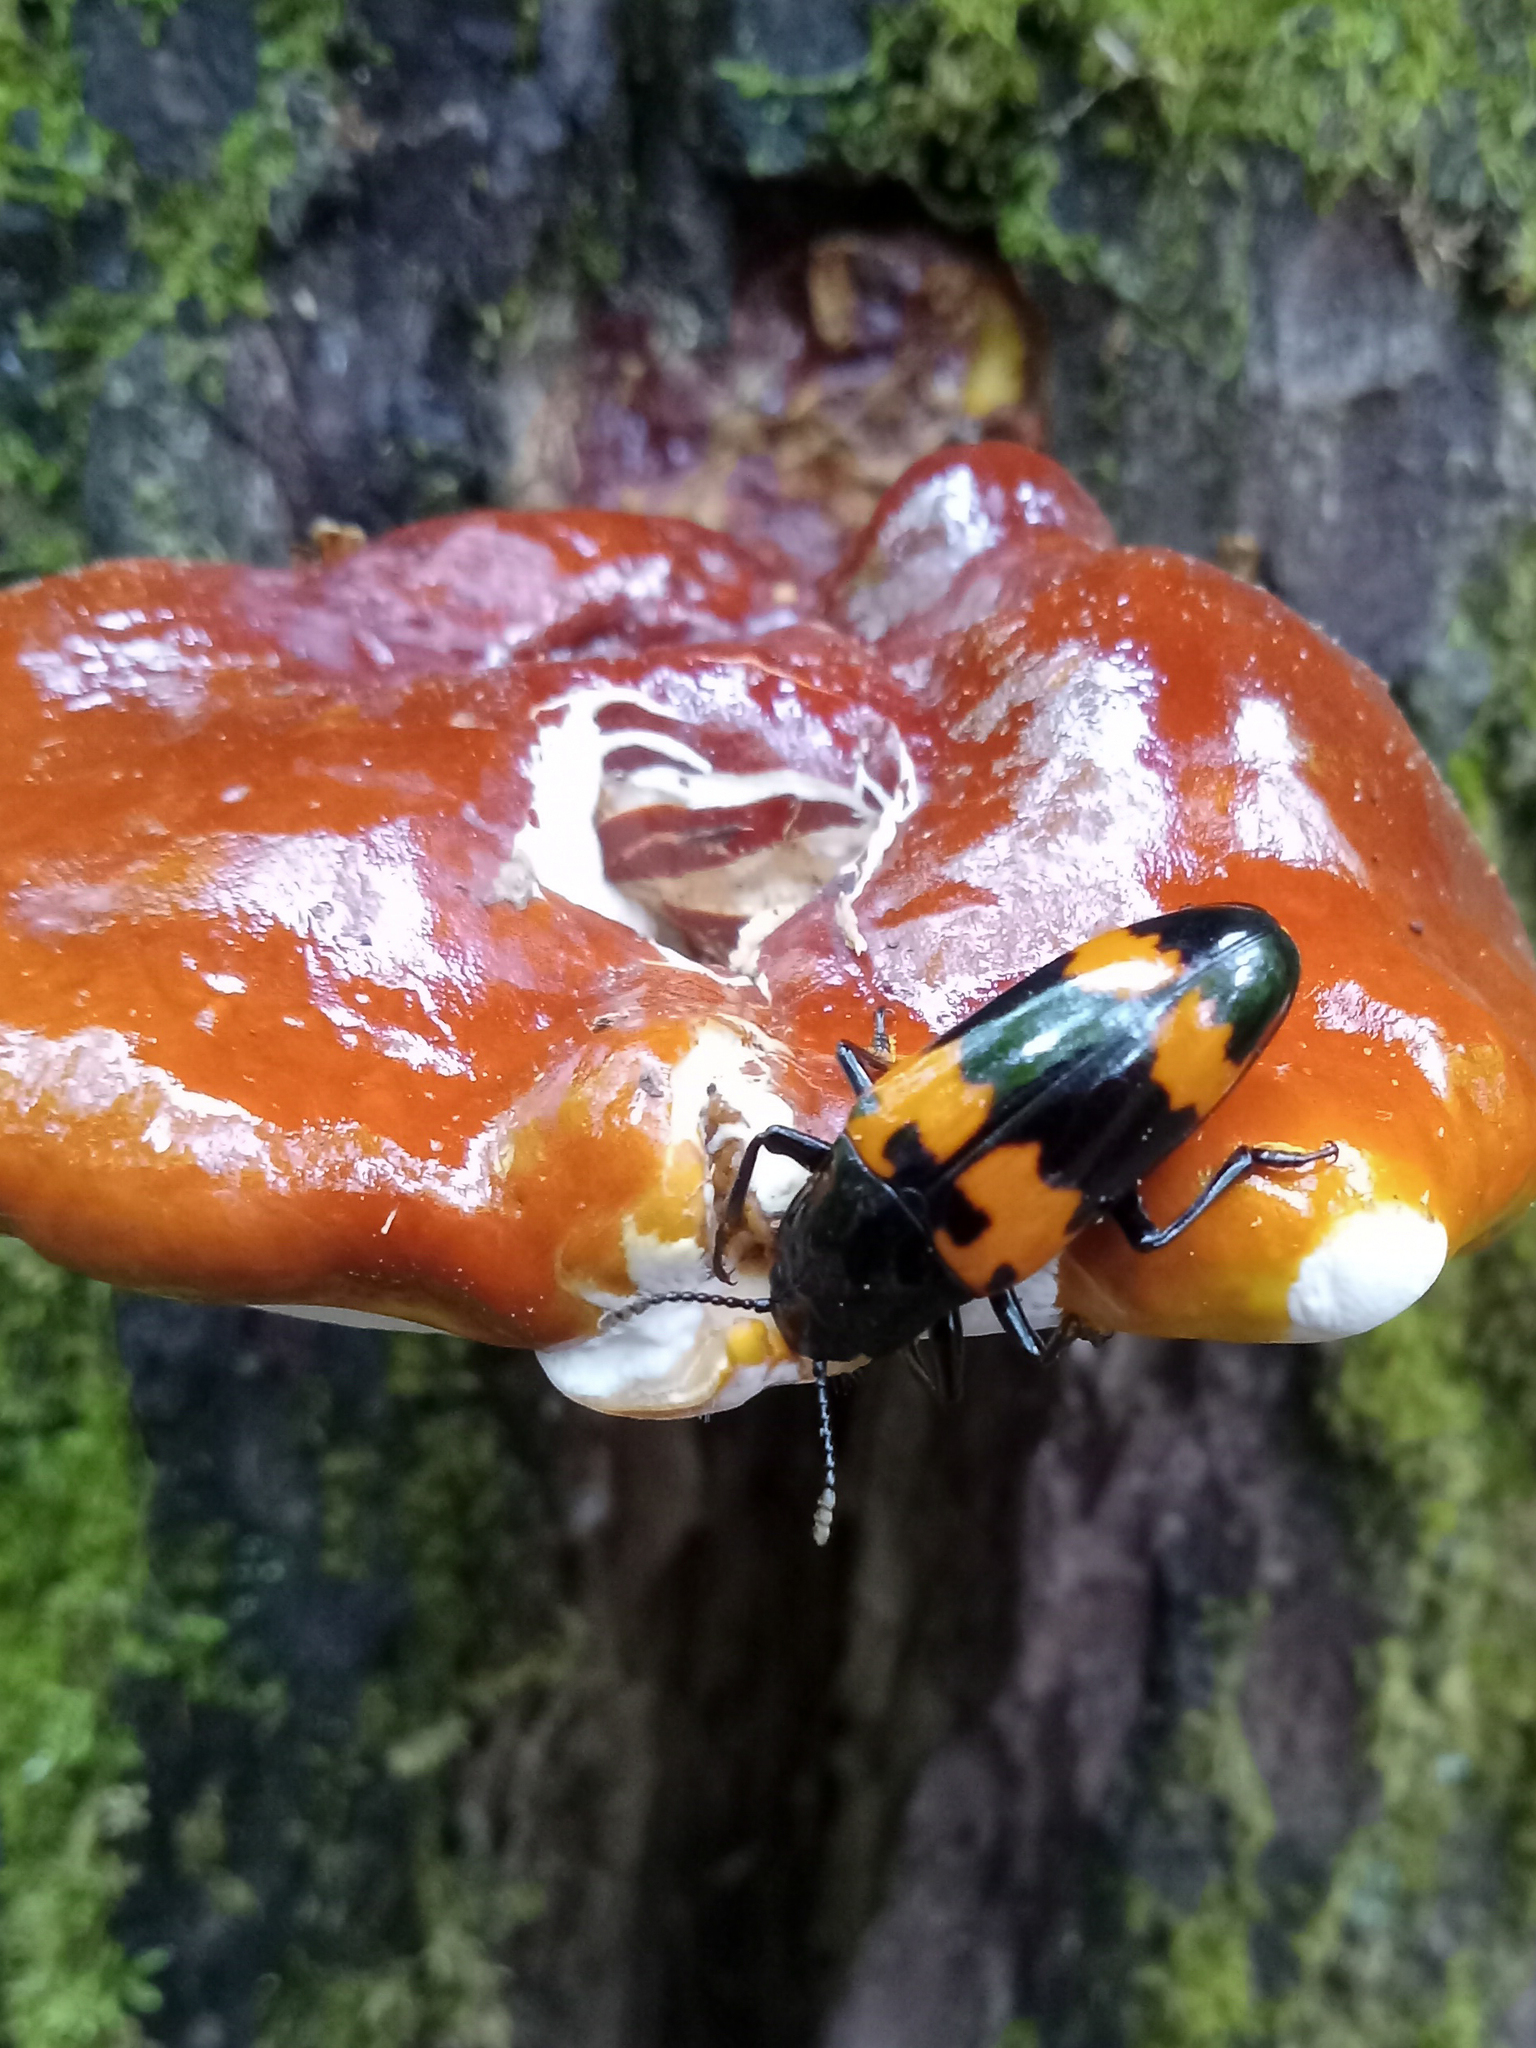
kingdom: Animalia
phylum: Arthropoda
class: Insecta
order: Coleoptera
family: Erotylidae
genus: Megalodacne
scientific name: Megalodacne heros
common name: Pleasing fungus beetle
